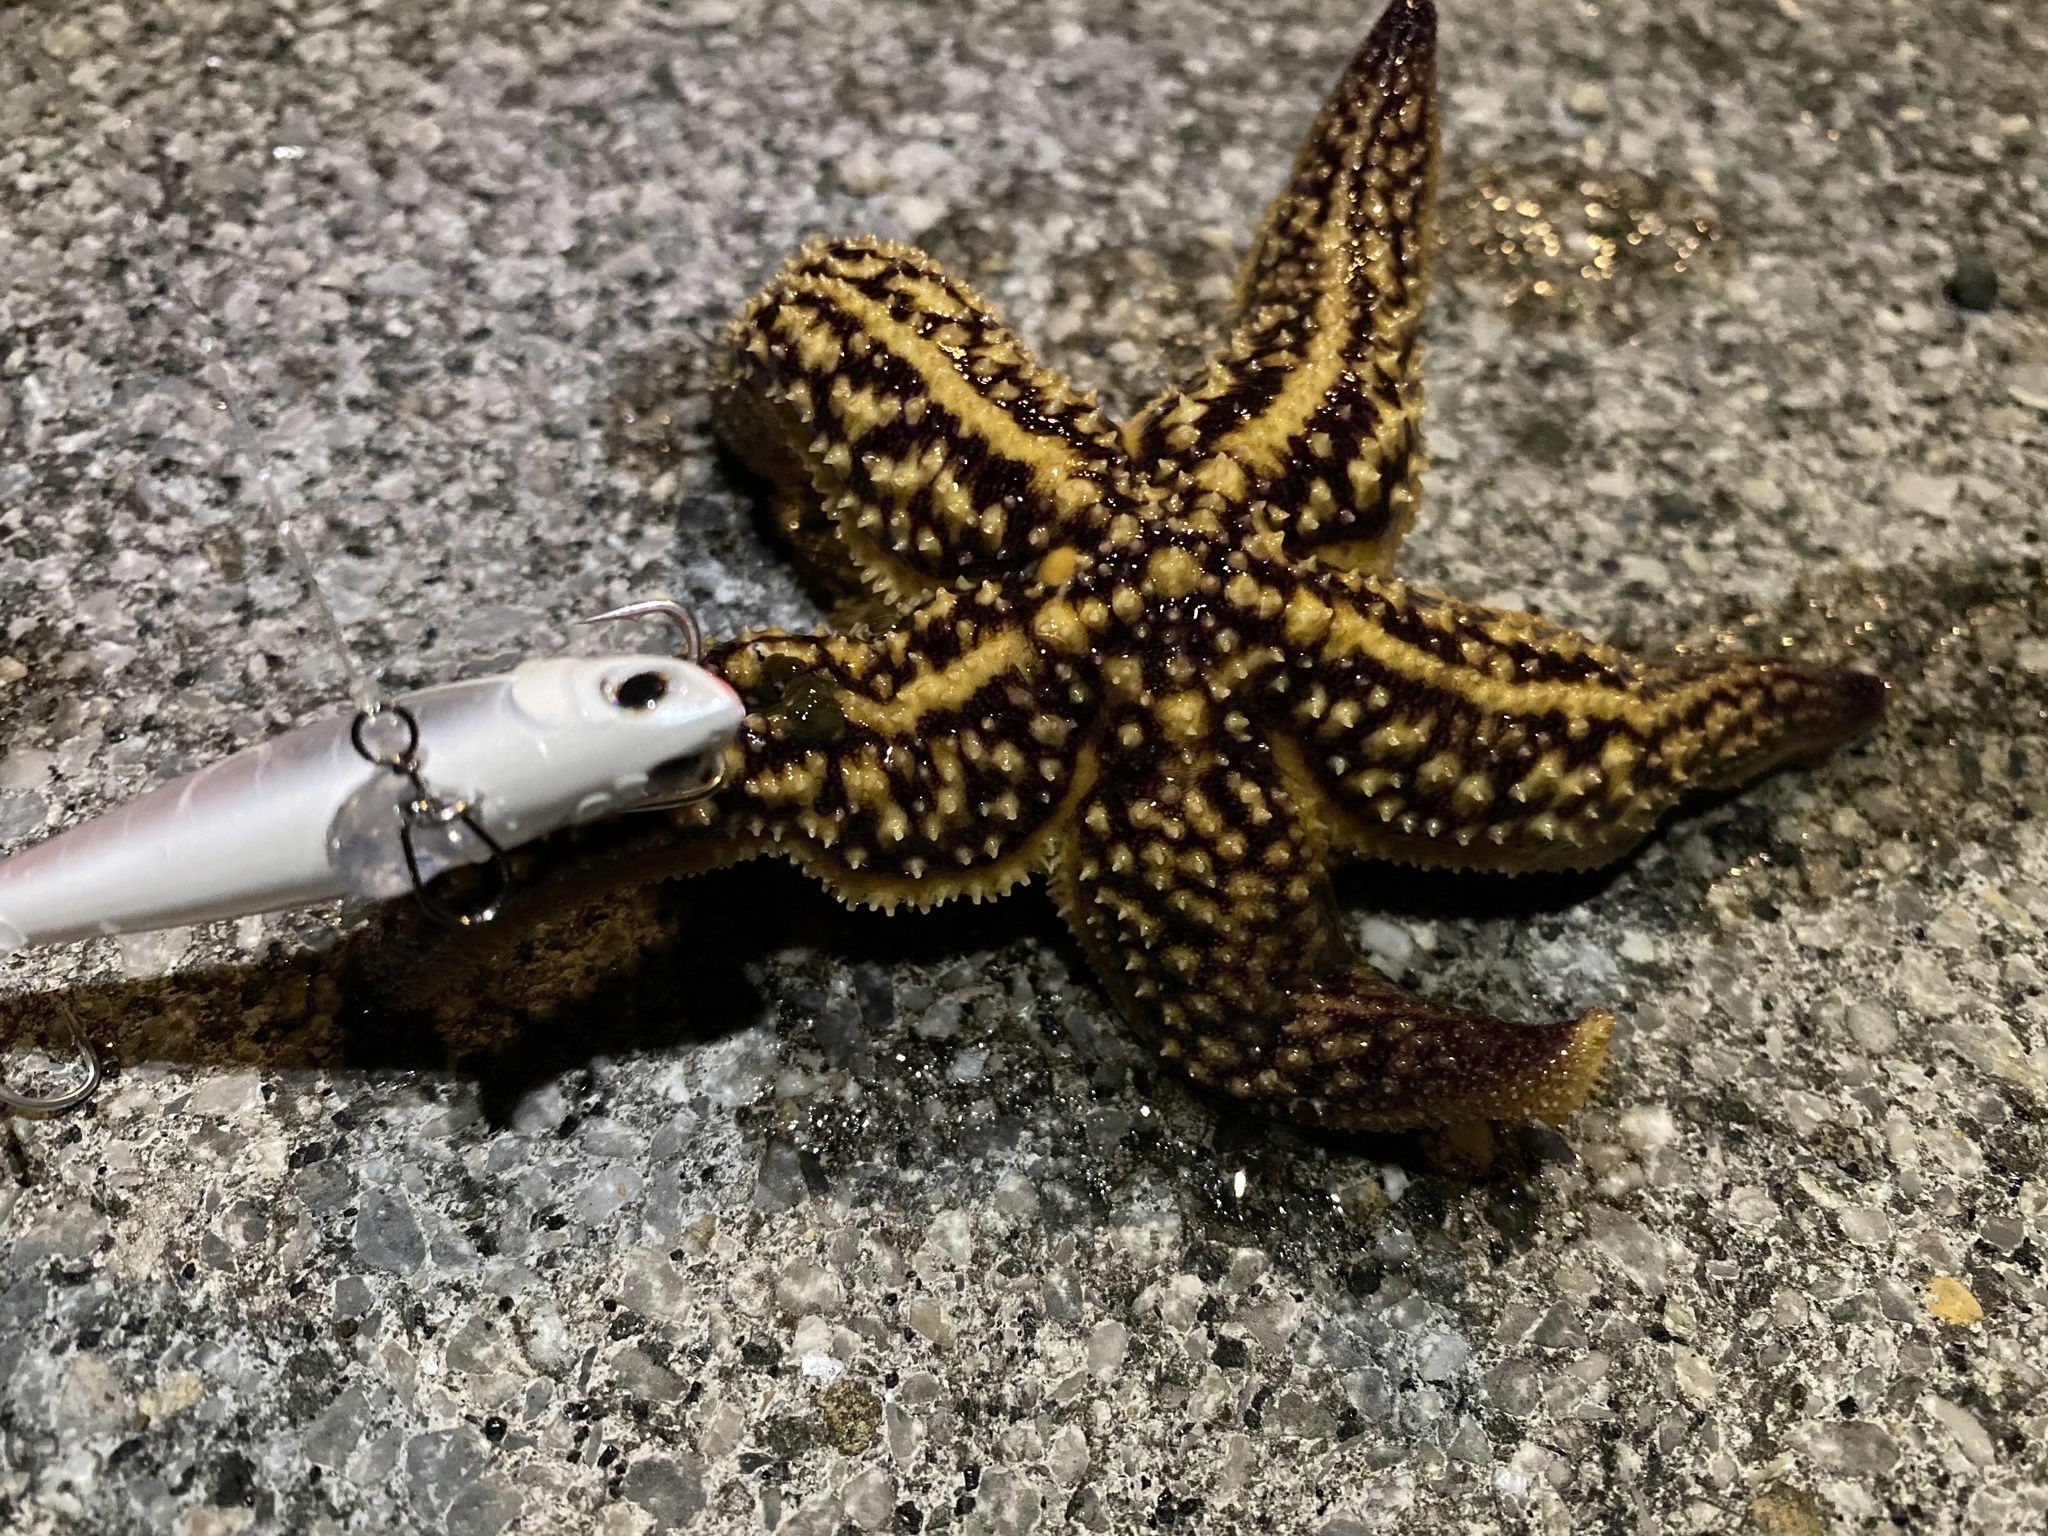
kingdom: Animalia
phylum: Echinodermata
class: Asteroidea
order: Forcipulatida
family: Asteriidae
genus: Asterias
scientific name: Asterias amurensis
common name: Flat-bottomed star
